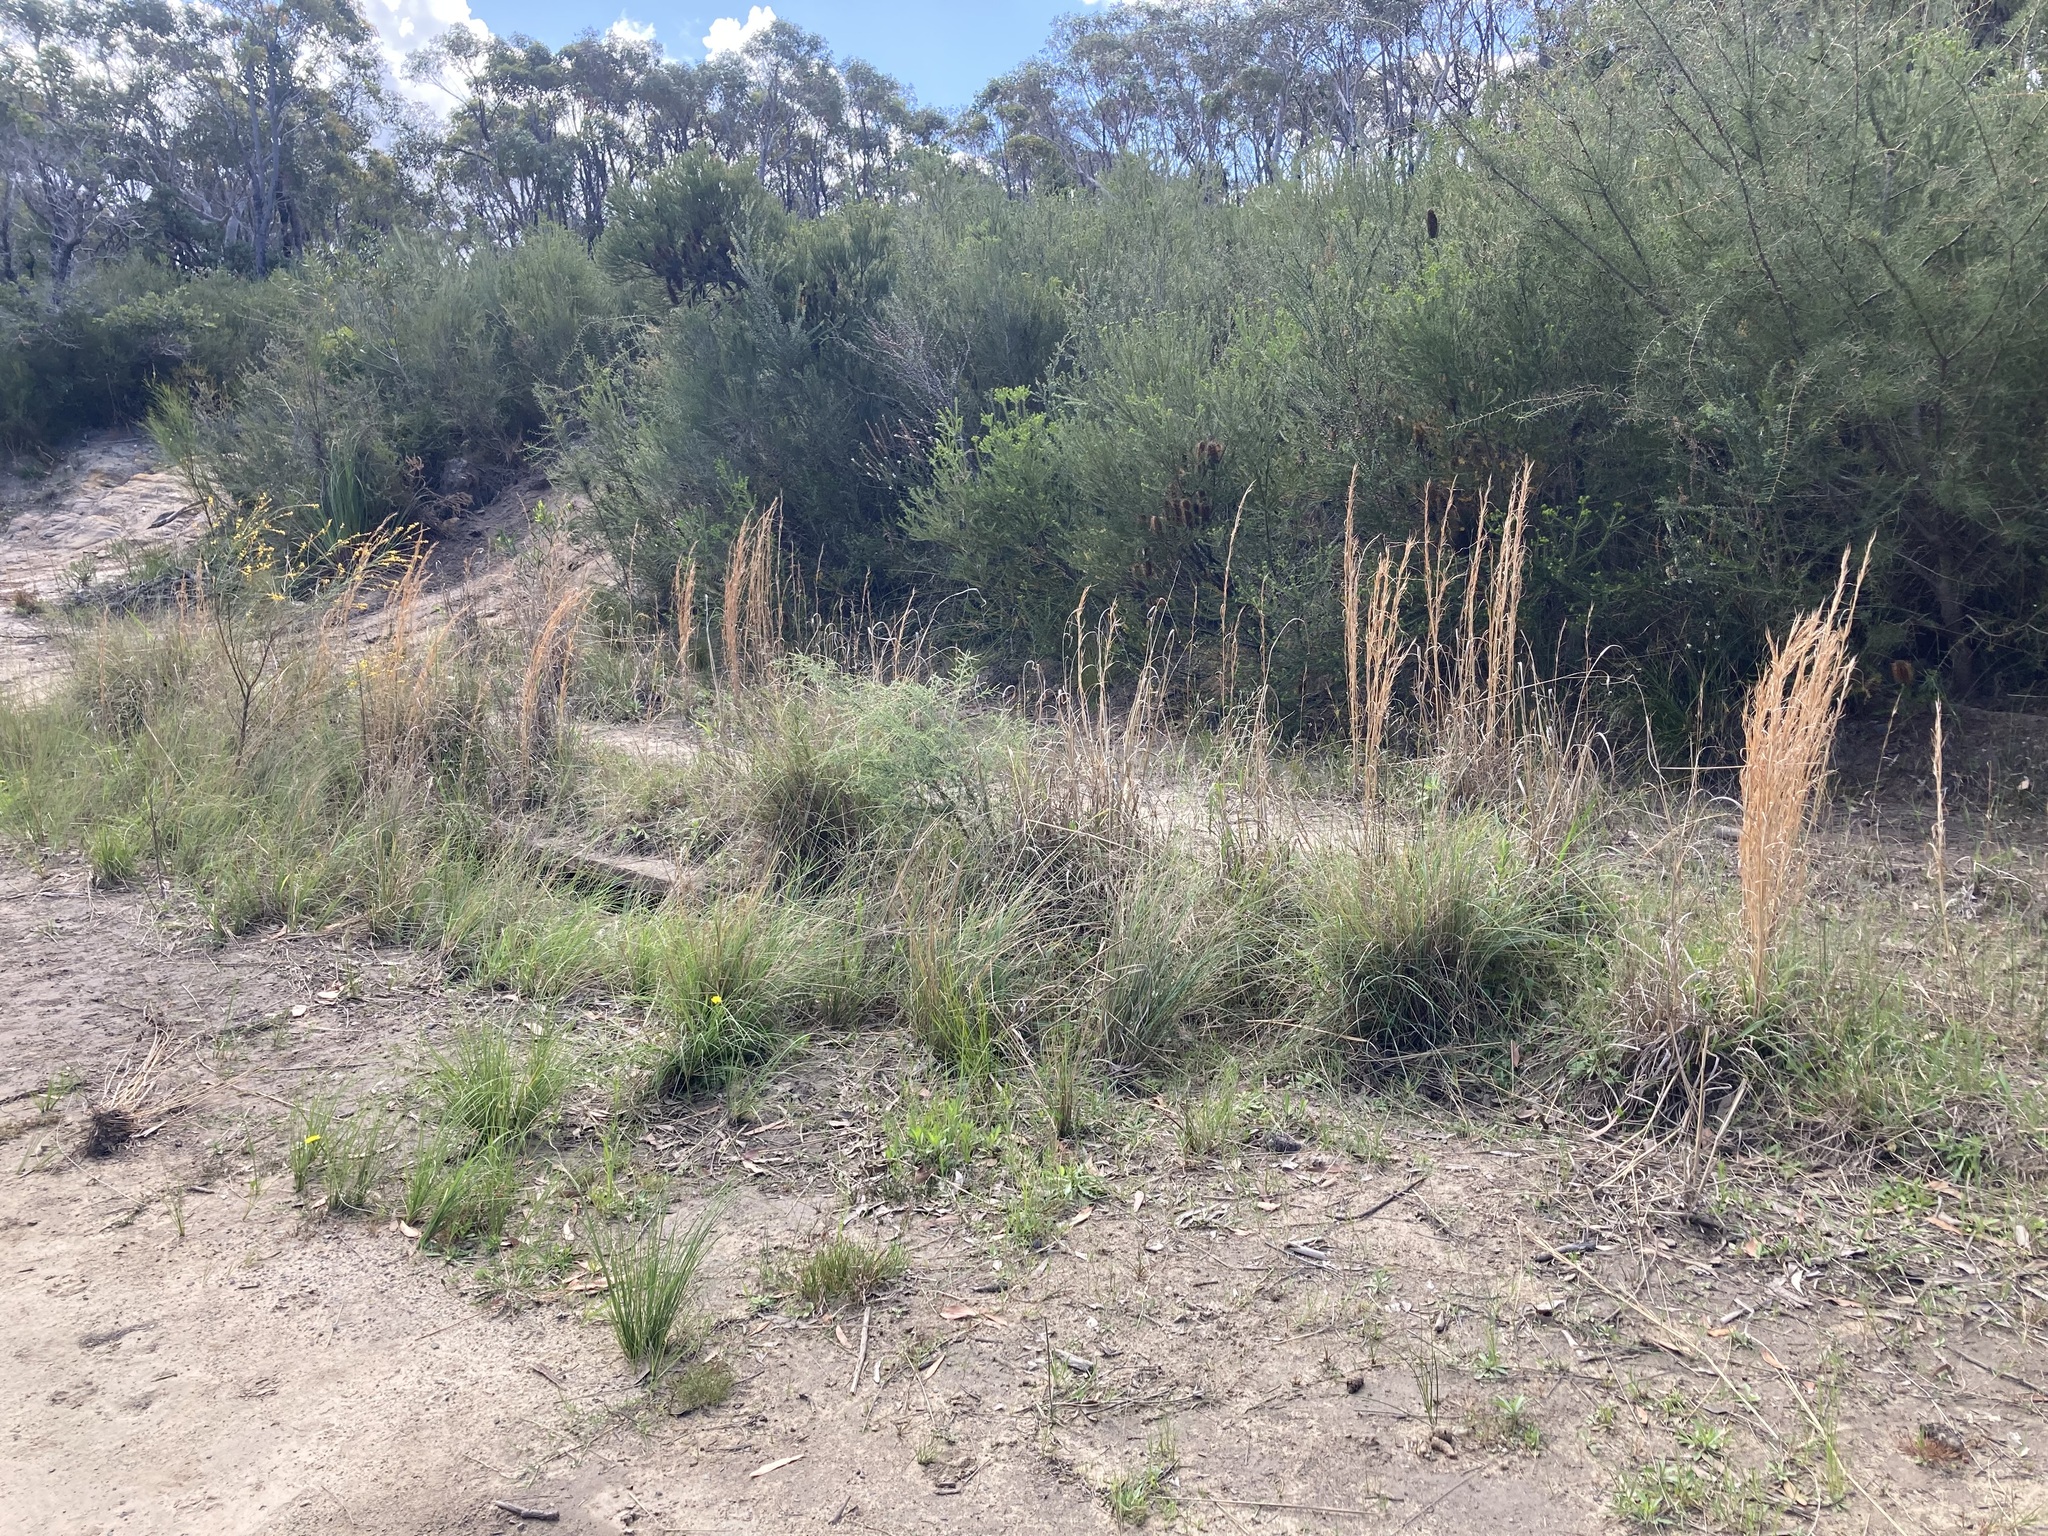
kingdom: Plantae
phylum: Tracheophyta
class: Liliopsida
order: Poales
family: Poaceae
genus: Andropogon
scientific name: Andropogon virginicus
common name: Broomsedge bluestem
